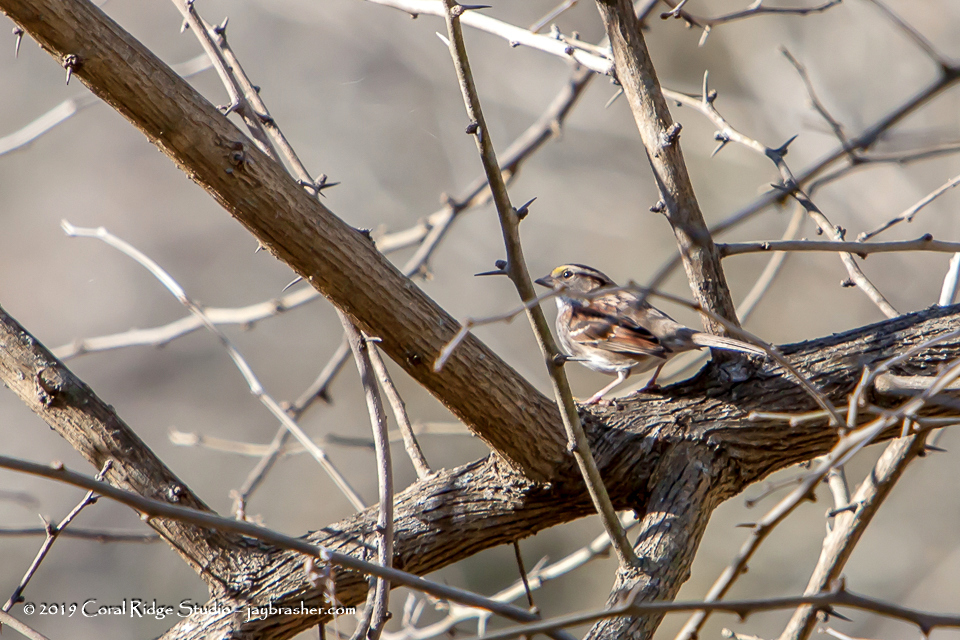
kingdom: Animalia
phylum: Chordata
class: Aves
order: Passeriformes
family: Passerellidae
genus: Zonotrichia
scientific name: Zonotrichia albicollis
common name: White-throated sparrow
